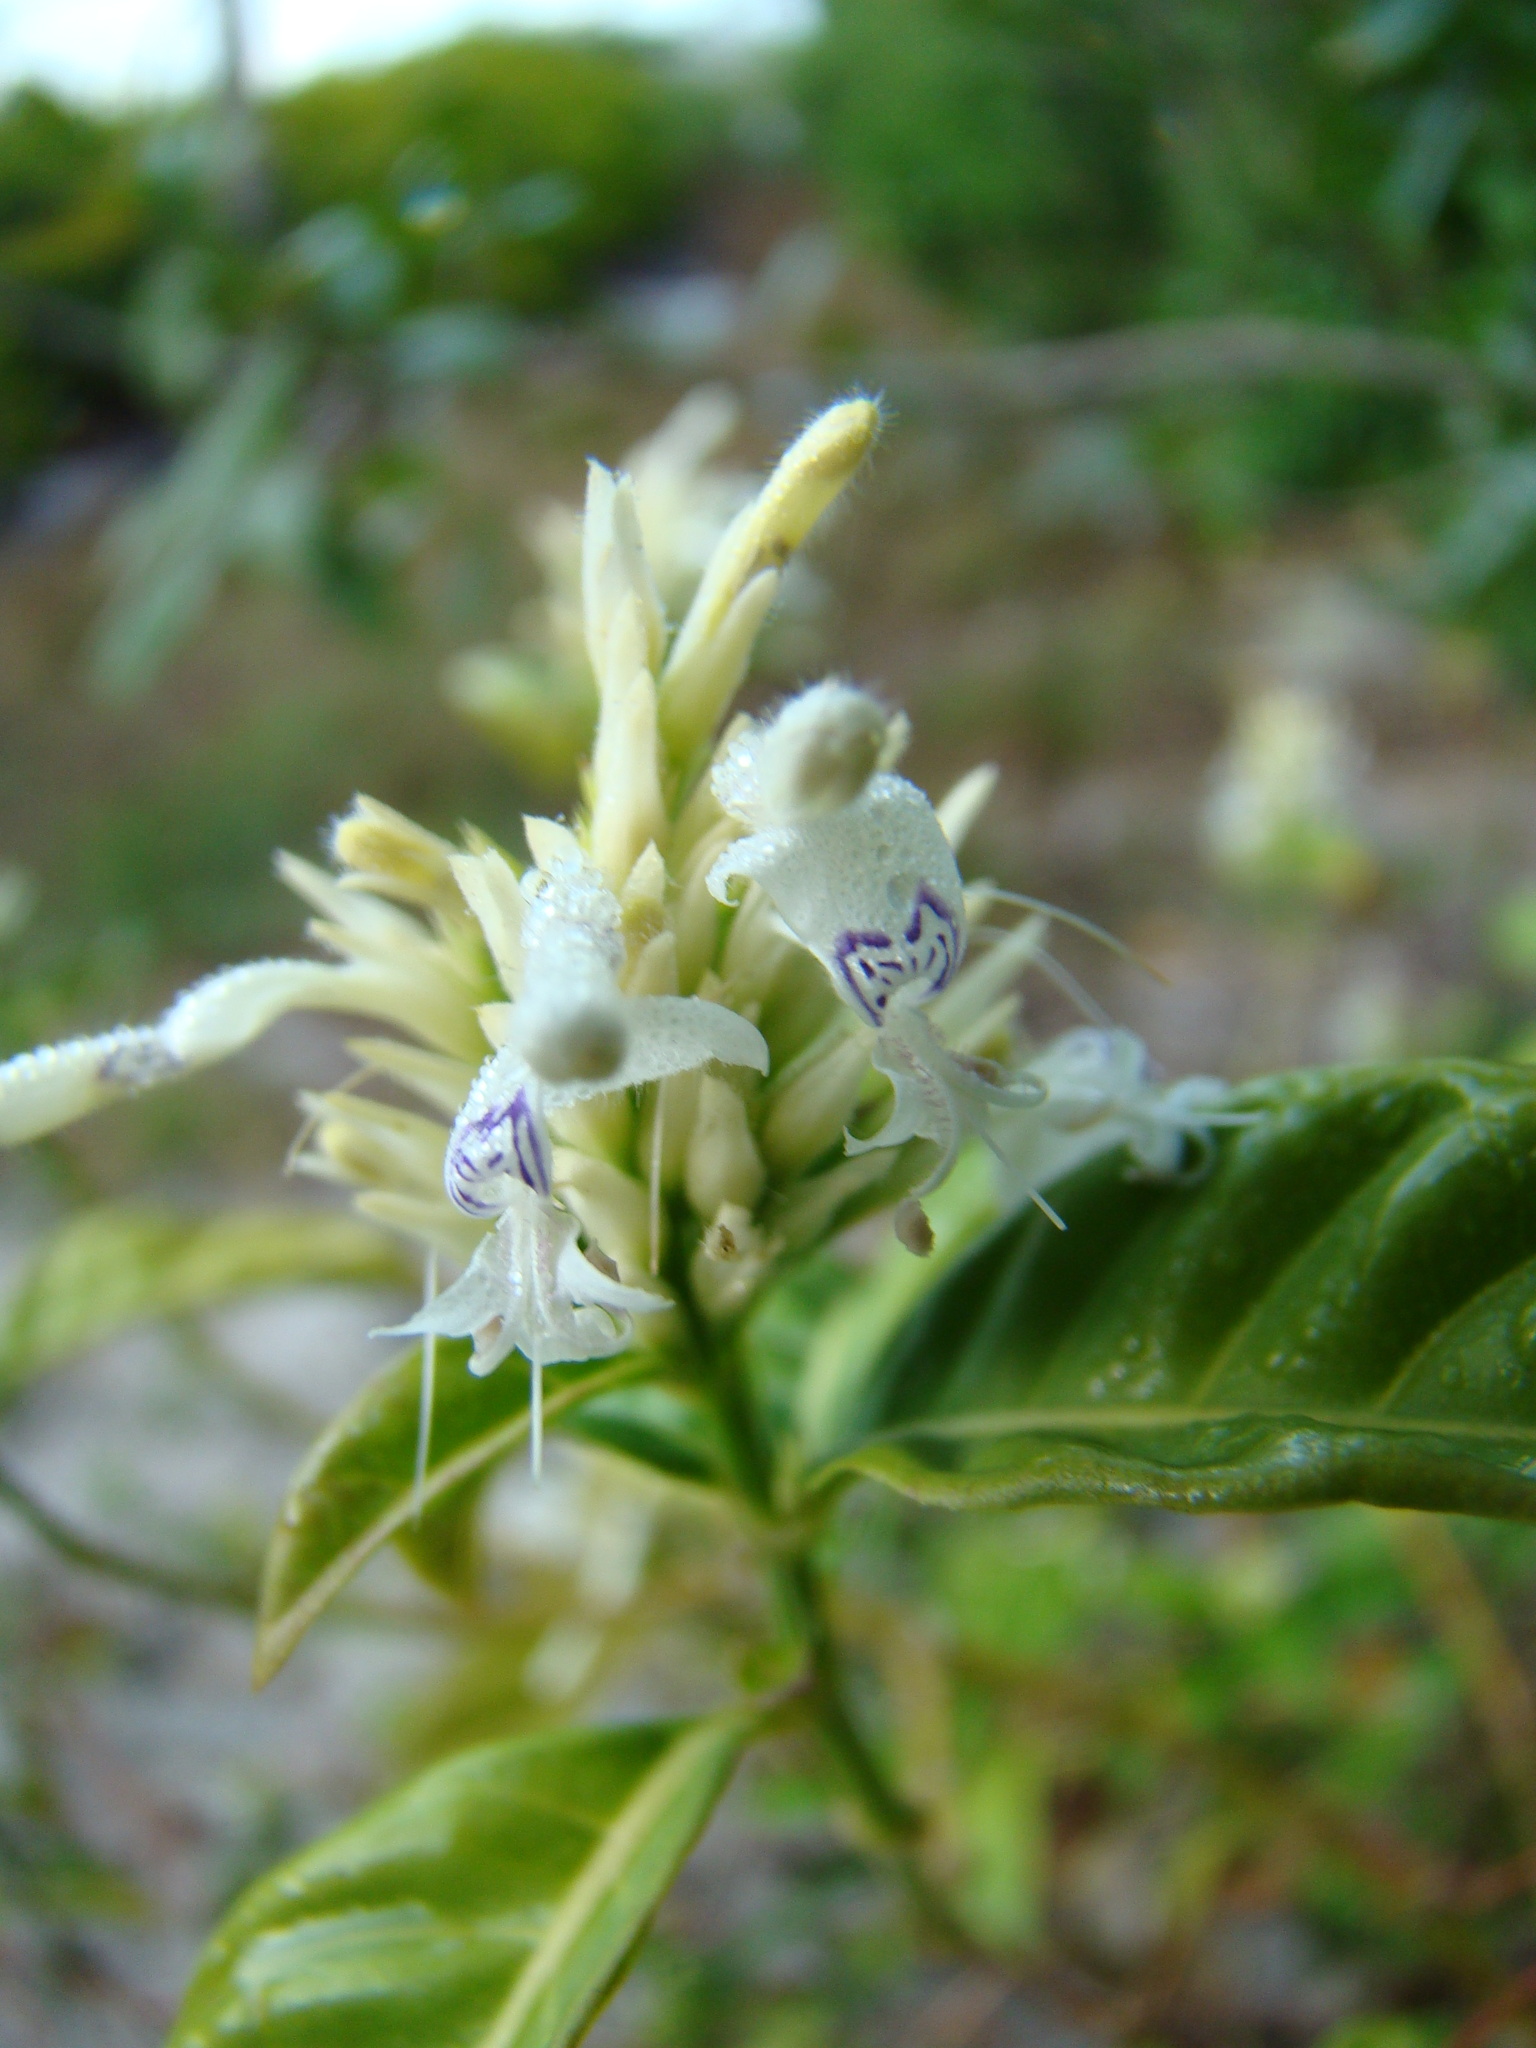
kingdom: Plantae
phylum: Tracheophyta
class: Magnoliopsida
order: Lamiales
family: Acanthaceae
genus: Hypoestes
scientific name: Hypoestes forskaolii
